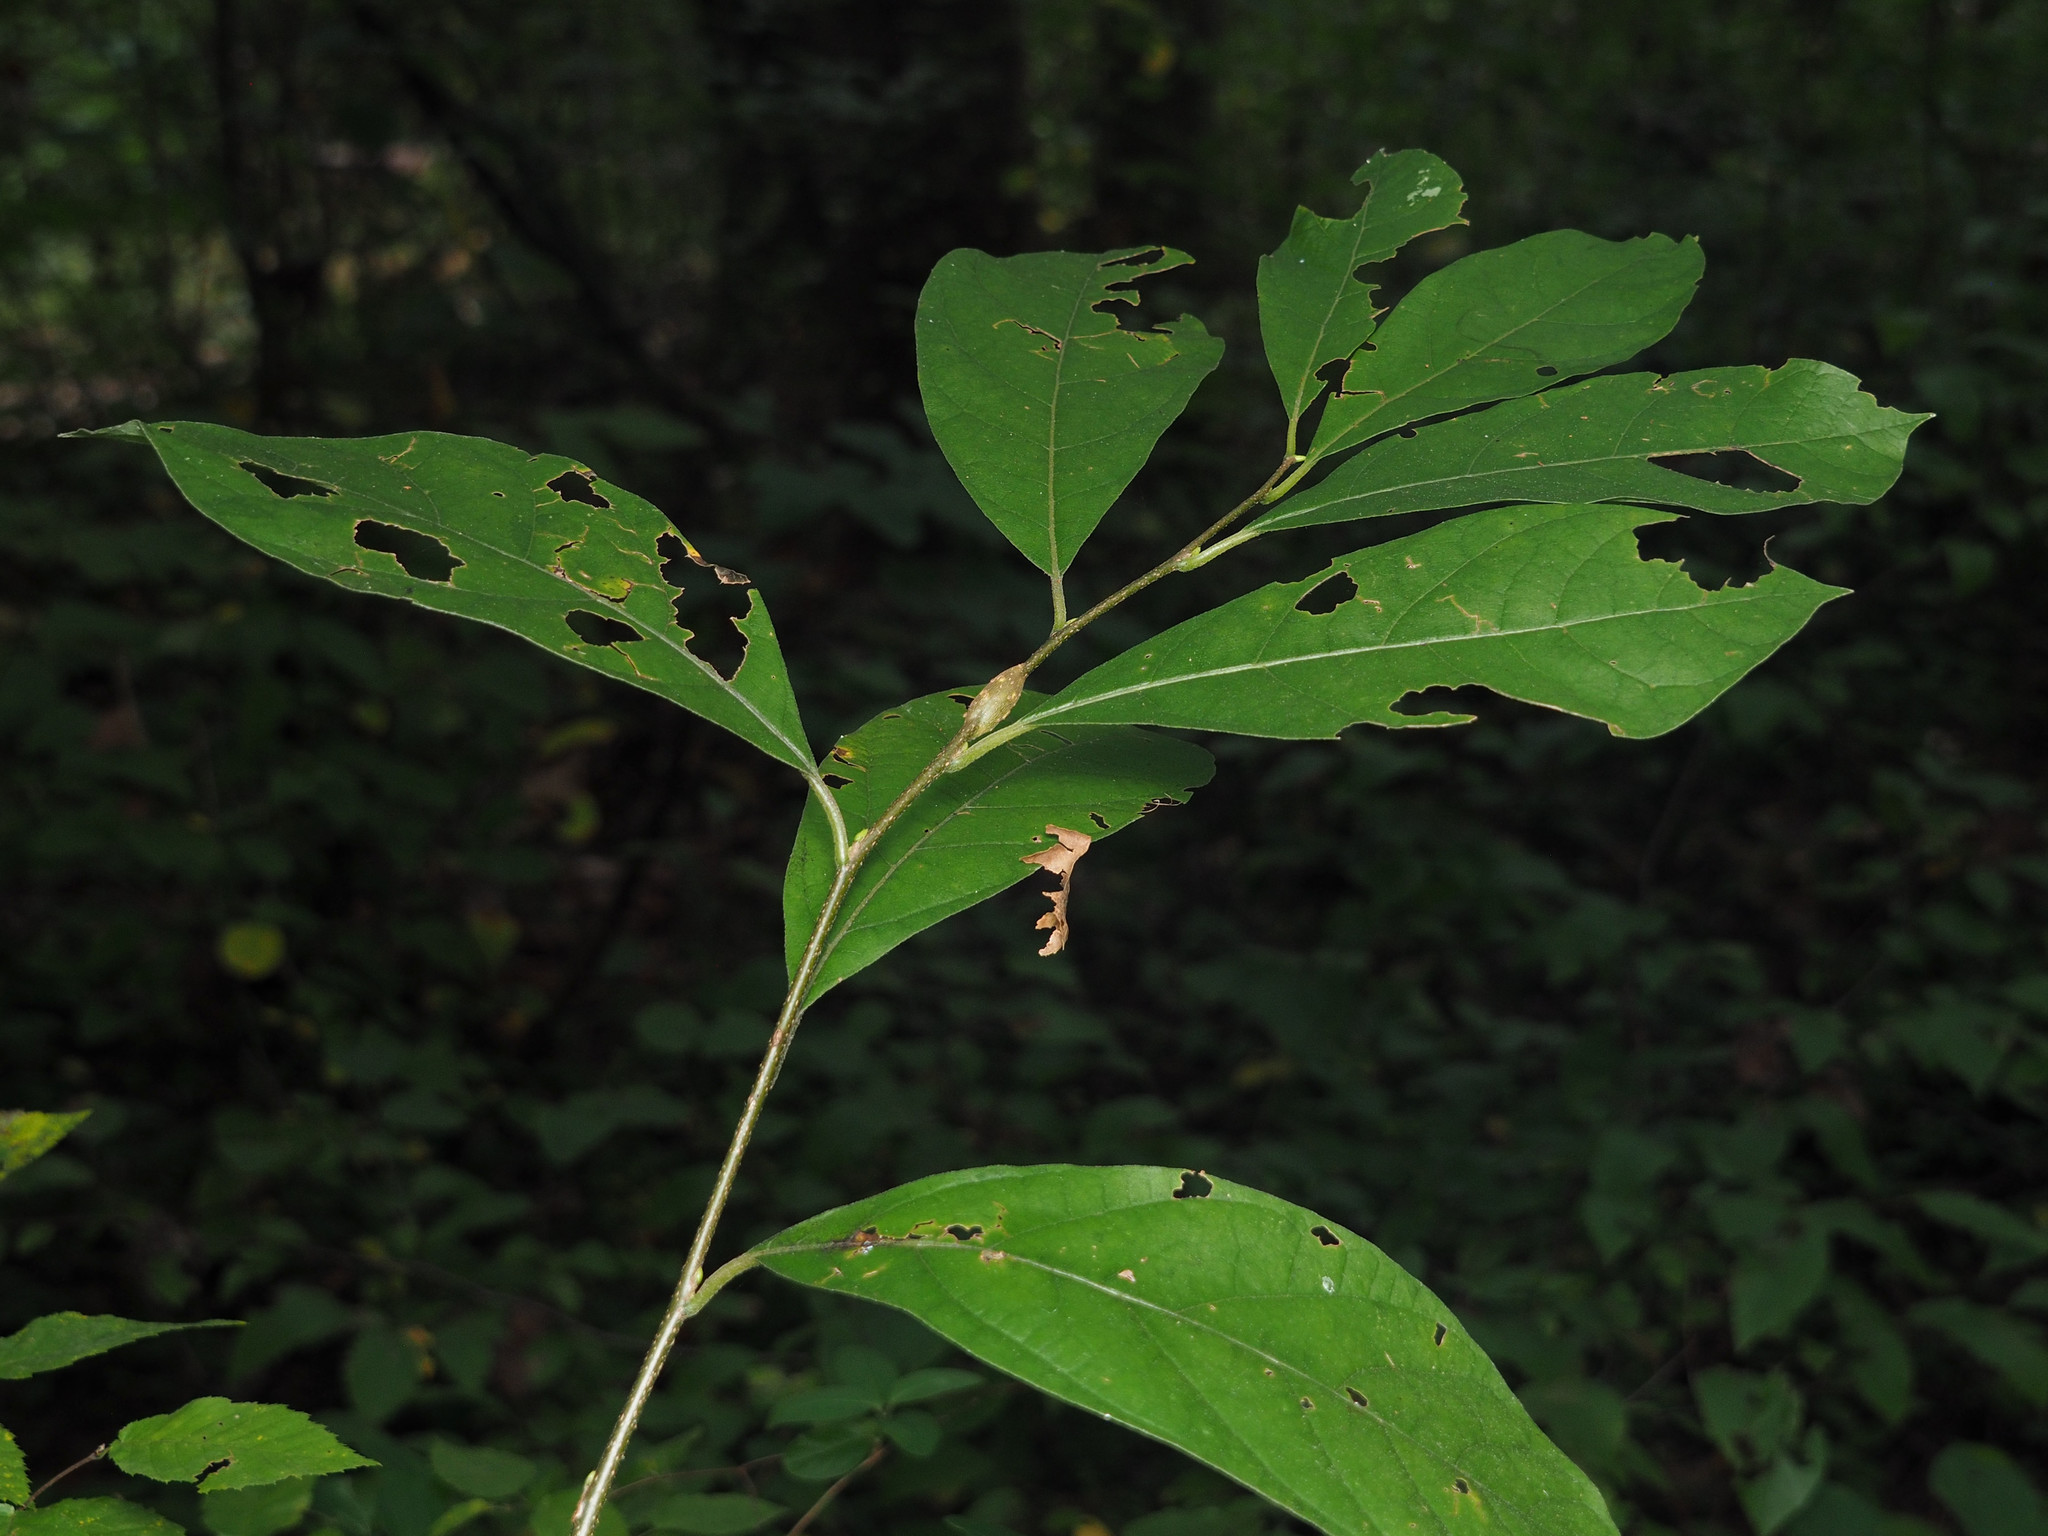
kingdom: Animalia
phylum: Arthropoda
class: Insecta
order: Diptera
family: Cecidomyiidae
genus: Neolasioptera
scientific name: Neolasioptera linderae
